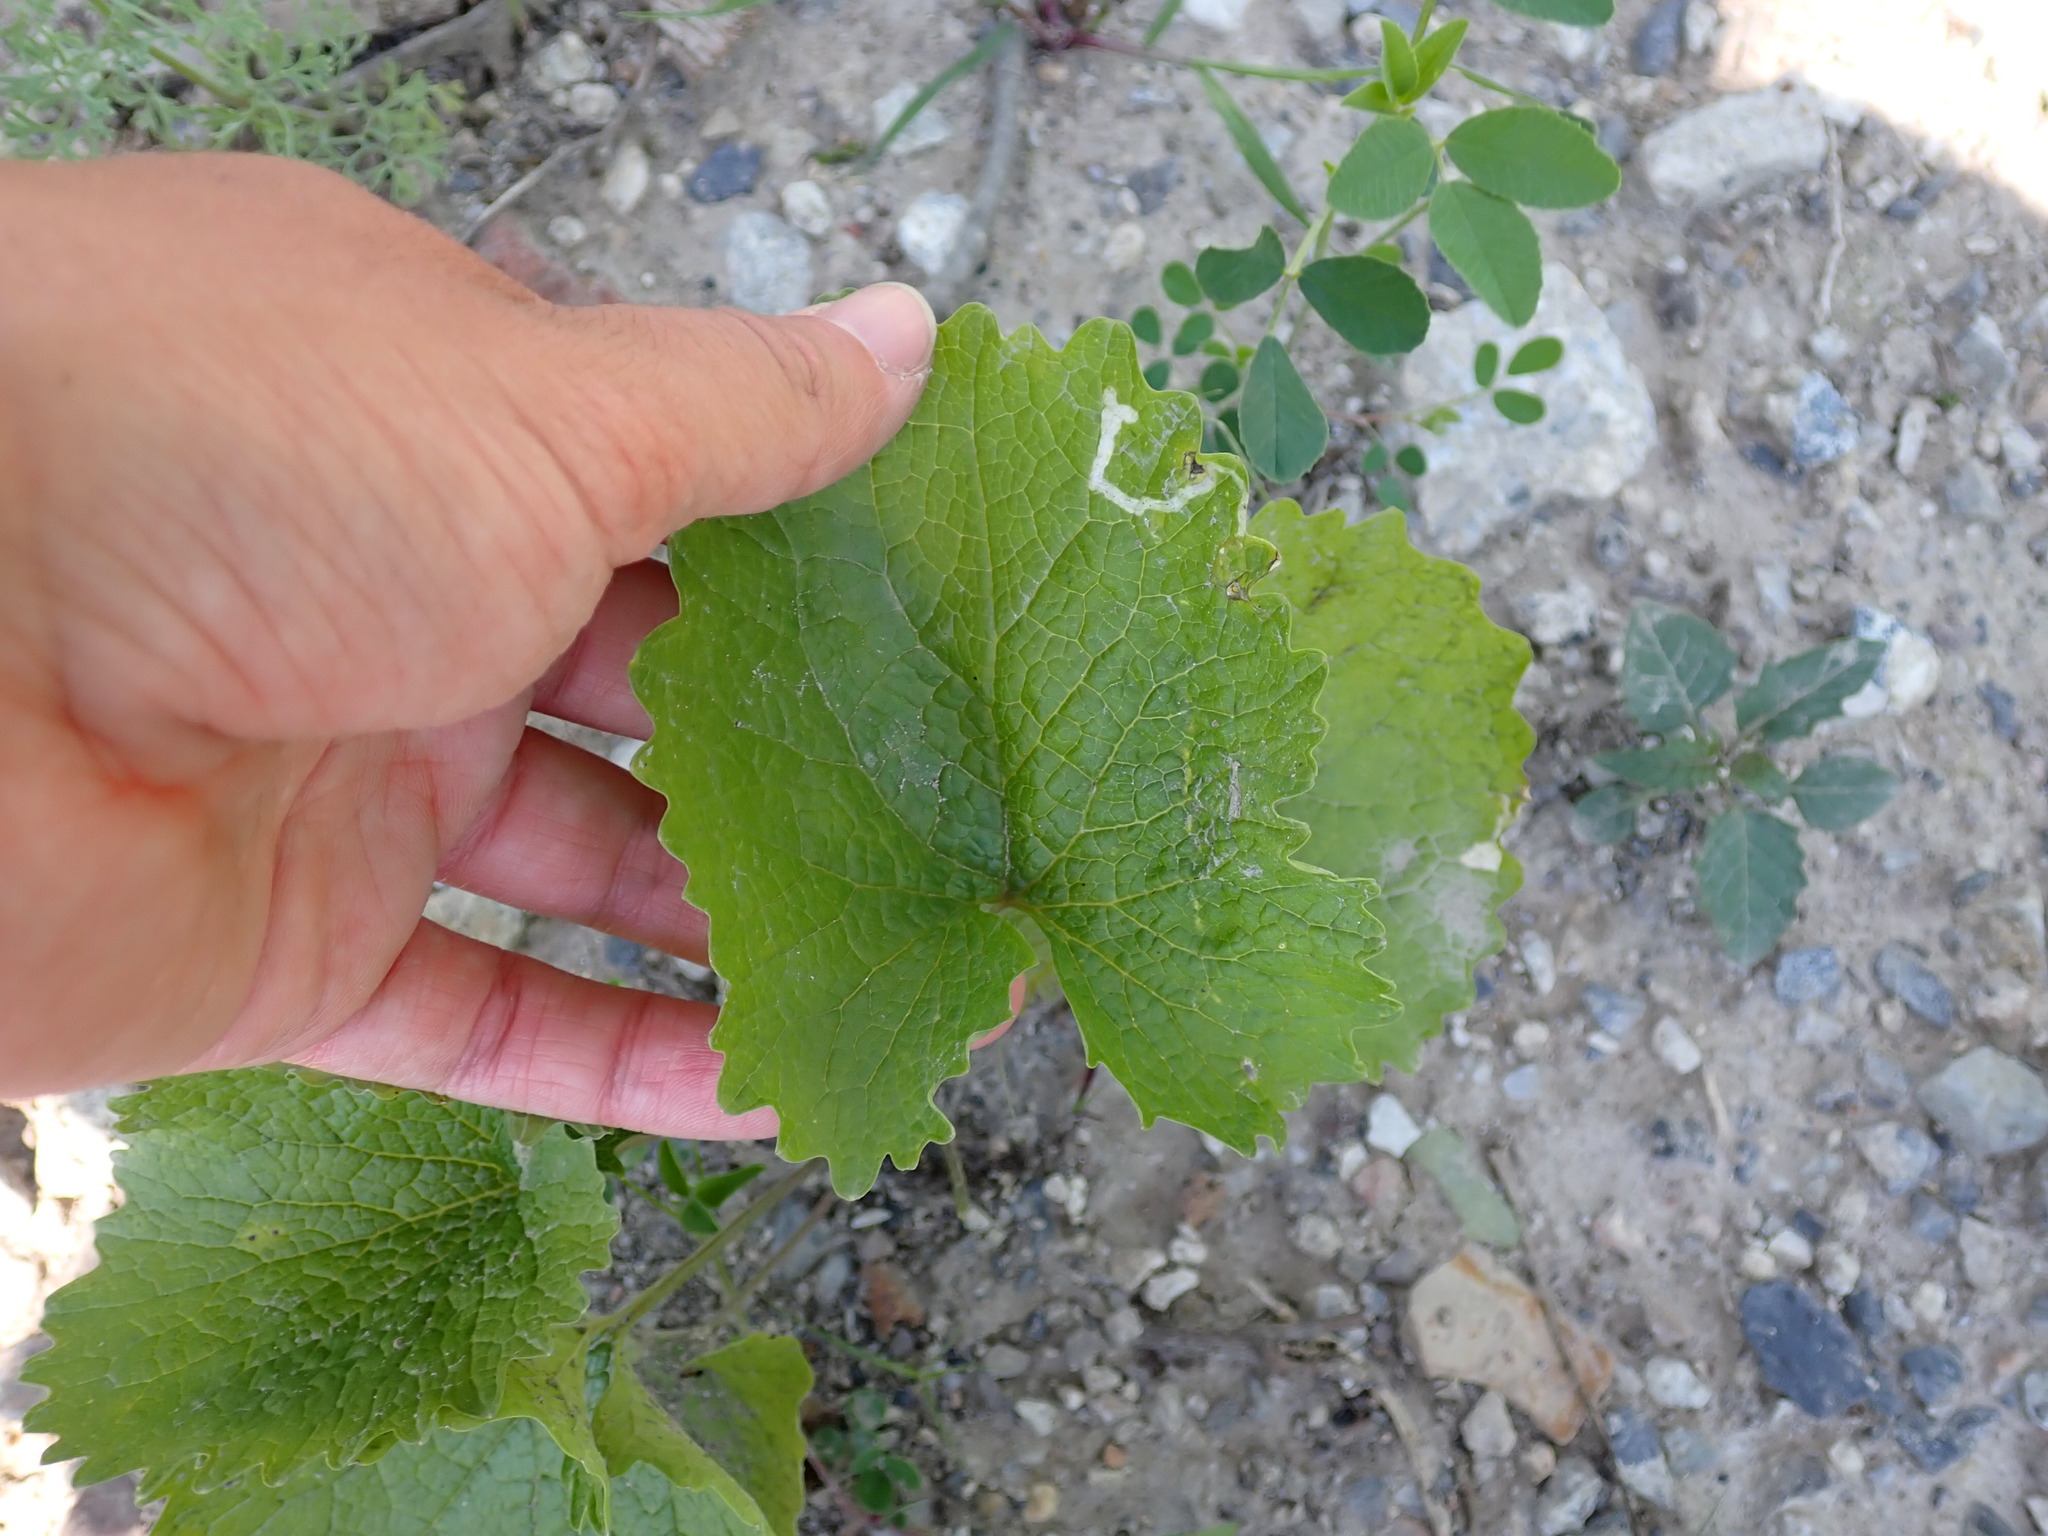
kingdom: Plantae
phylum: Tracheophyta
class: Magnoliopsida
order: Brassicales
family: Brassicaceae
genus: Alliaria
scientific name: Alliaria petiolata
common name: Garlic mustard
